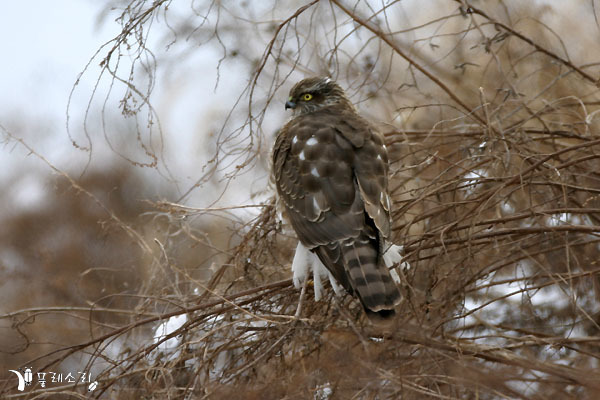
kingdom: Animalia
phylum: Chordata
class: Aves
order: Accipitriformes
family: Accipitridae
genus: Accipiter
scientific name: Accipiter nisus
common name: Eurasian sparrowhawk
